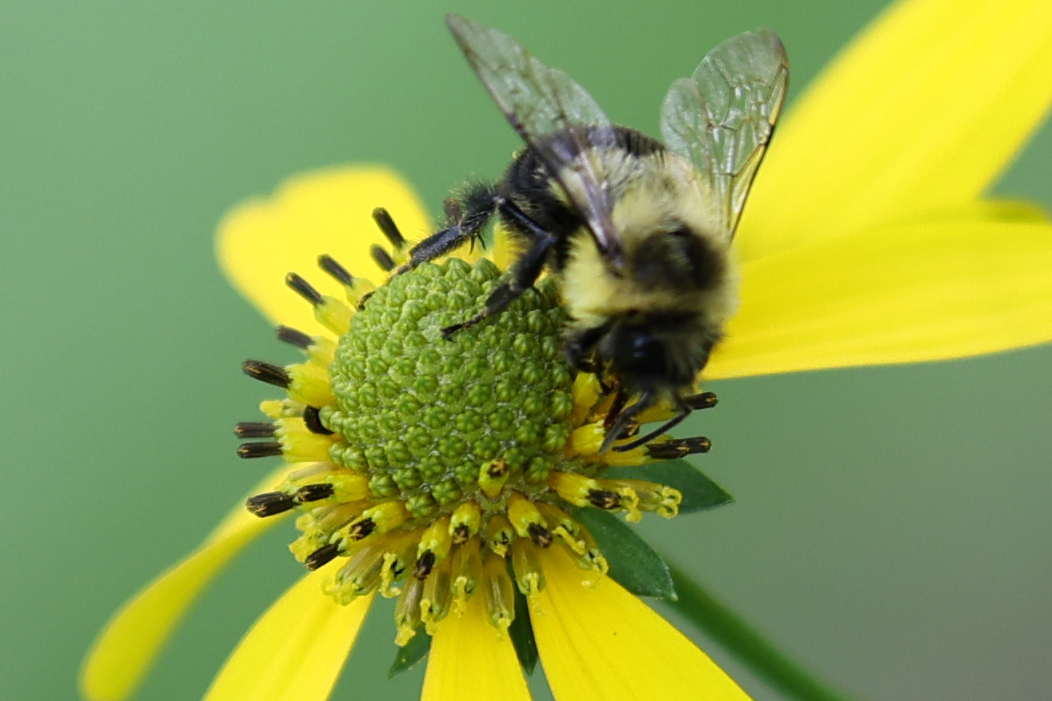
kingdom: Animalia
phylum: Arthropoda
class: Insecta
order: Hymenoptera
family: Apidae
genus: Bombus
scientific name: Bombus impatiens
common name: Common eastern bumble bee
